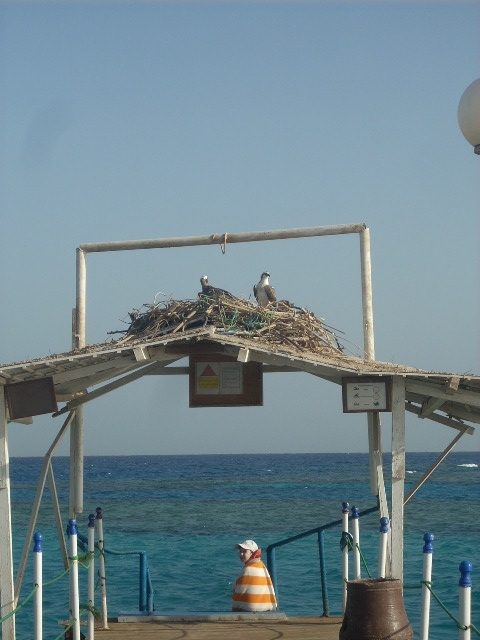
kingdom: Animalia
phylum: Chordata
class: Aves
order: Accipitriformes
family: Pandionidae
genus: Pandion
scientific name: Pandion haliaetus
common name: Osprey
